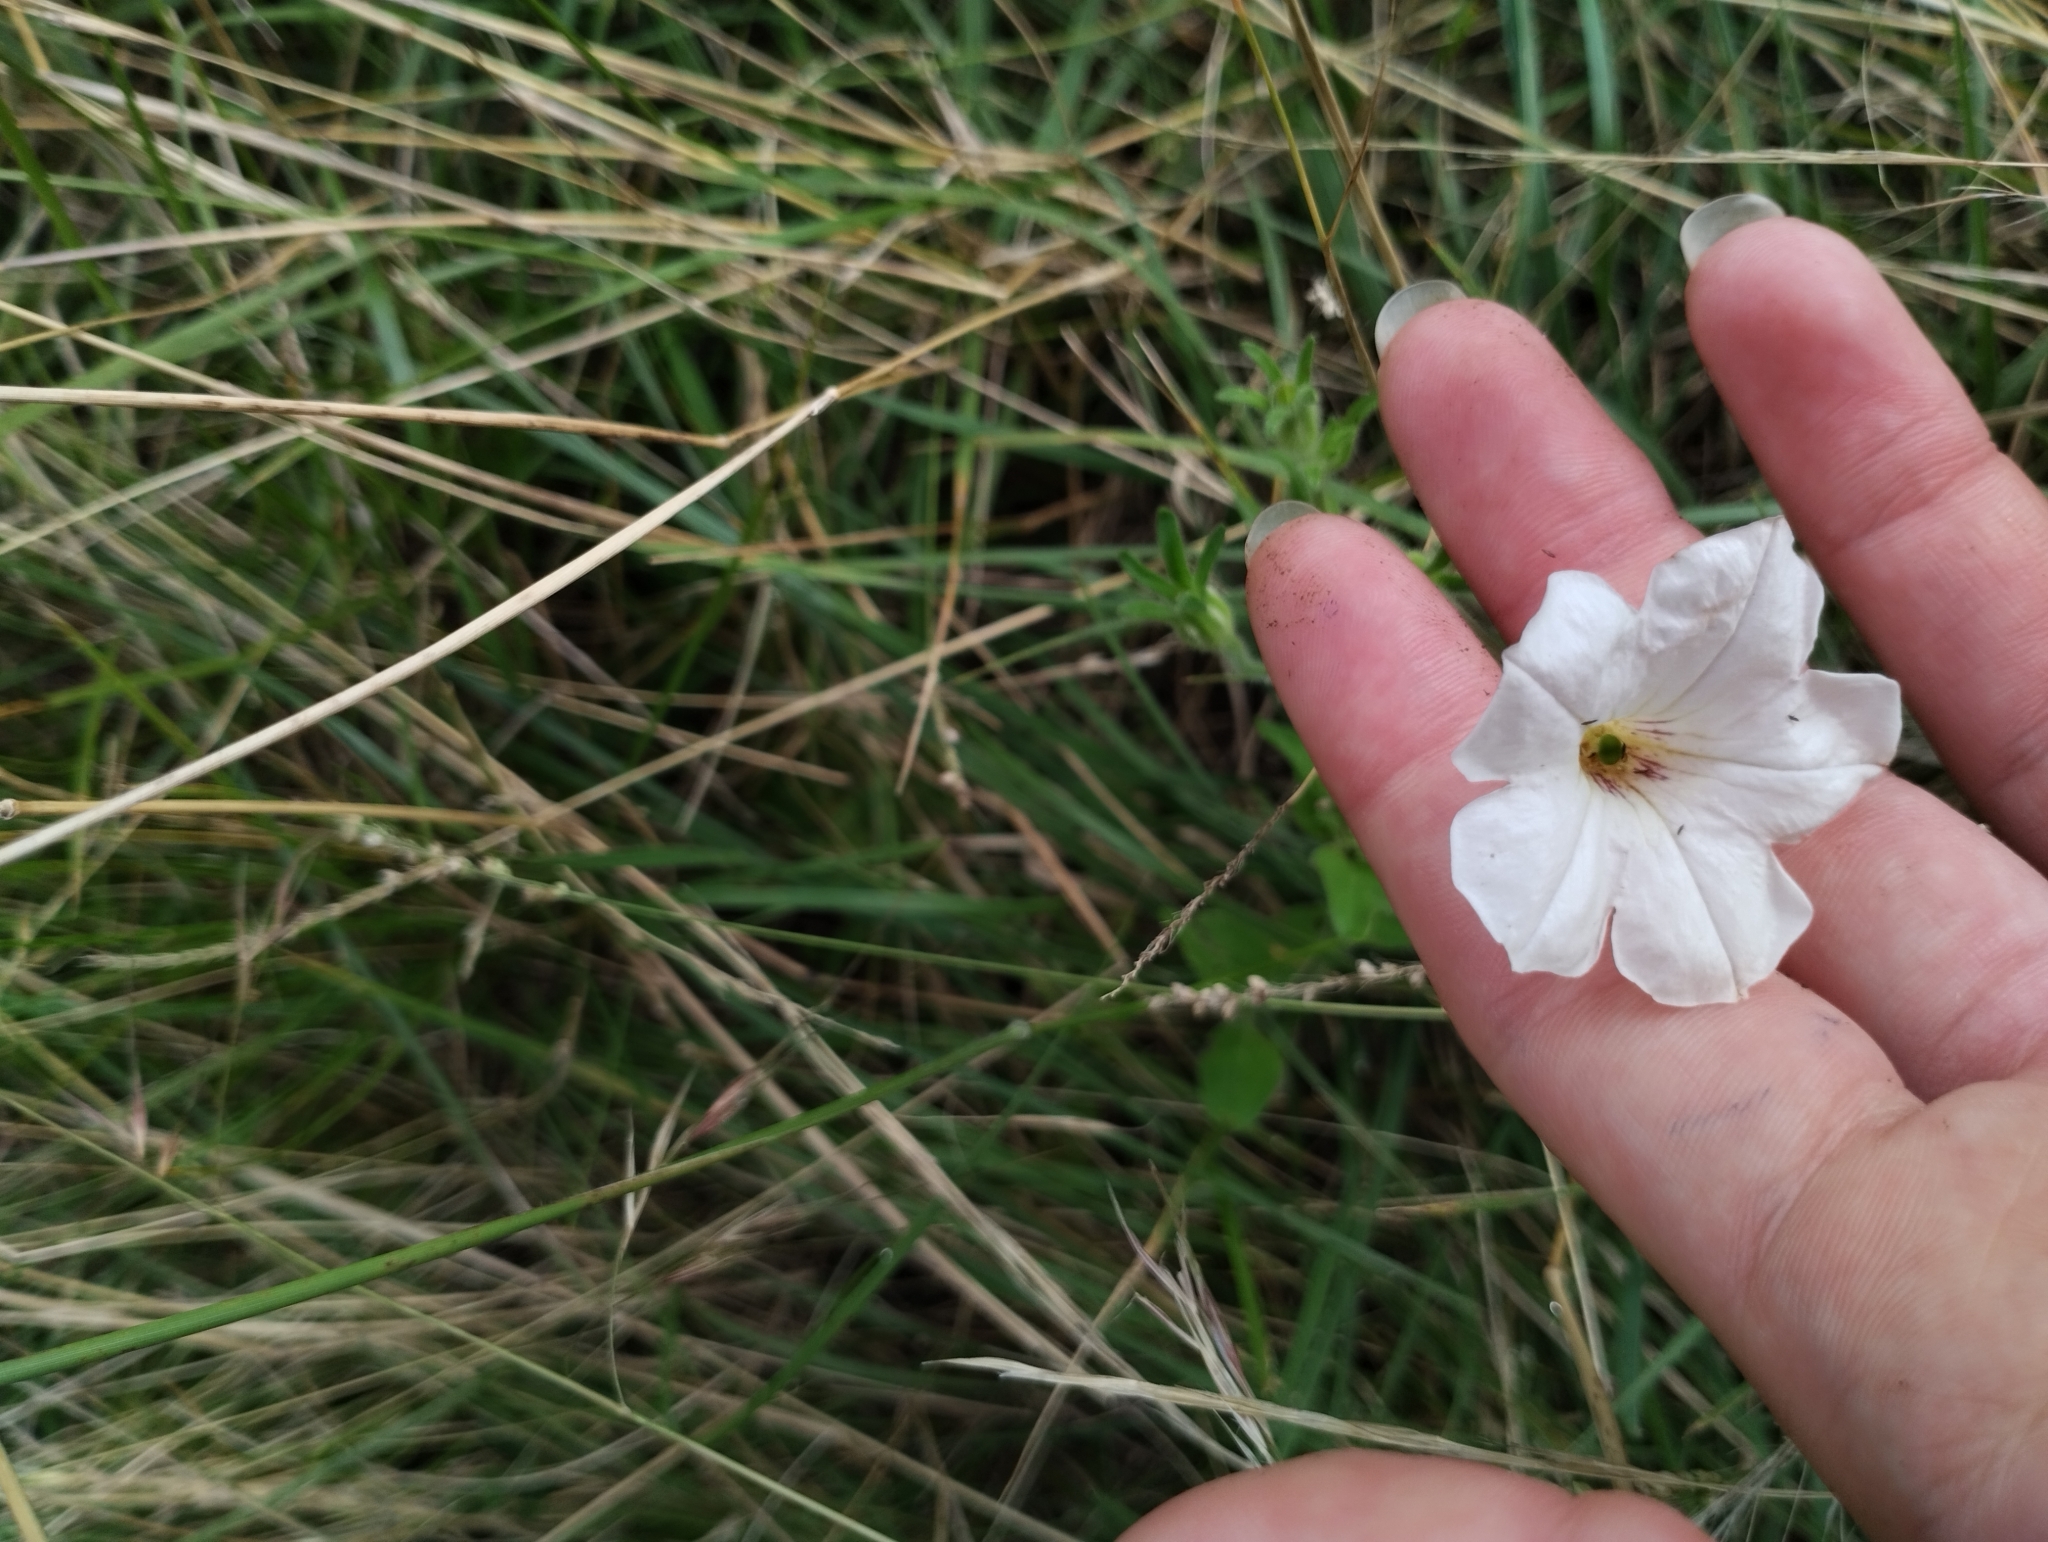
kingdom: Plantae
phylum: Tracheophyta
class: Magnoliopsida
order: Solanales
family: Solanaceae
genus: Petunia
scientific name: Petunia axillaris
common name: Large white petunia
